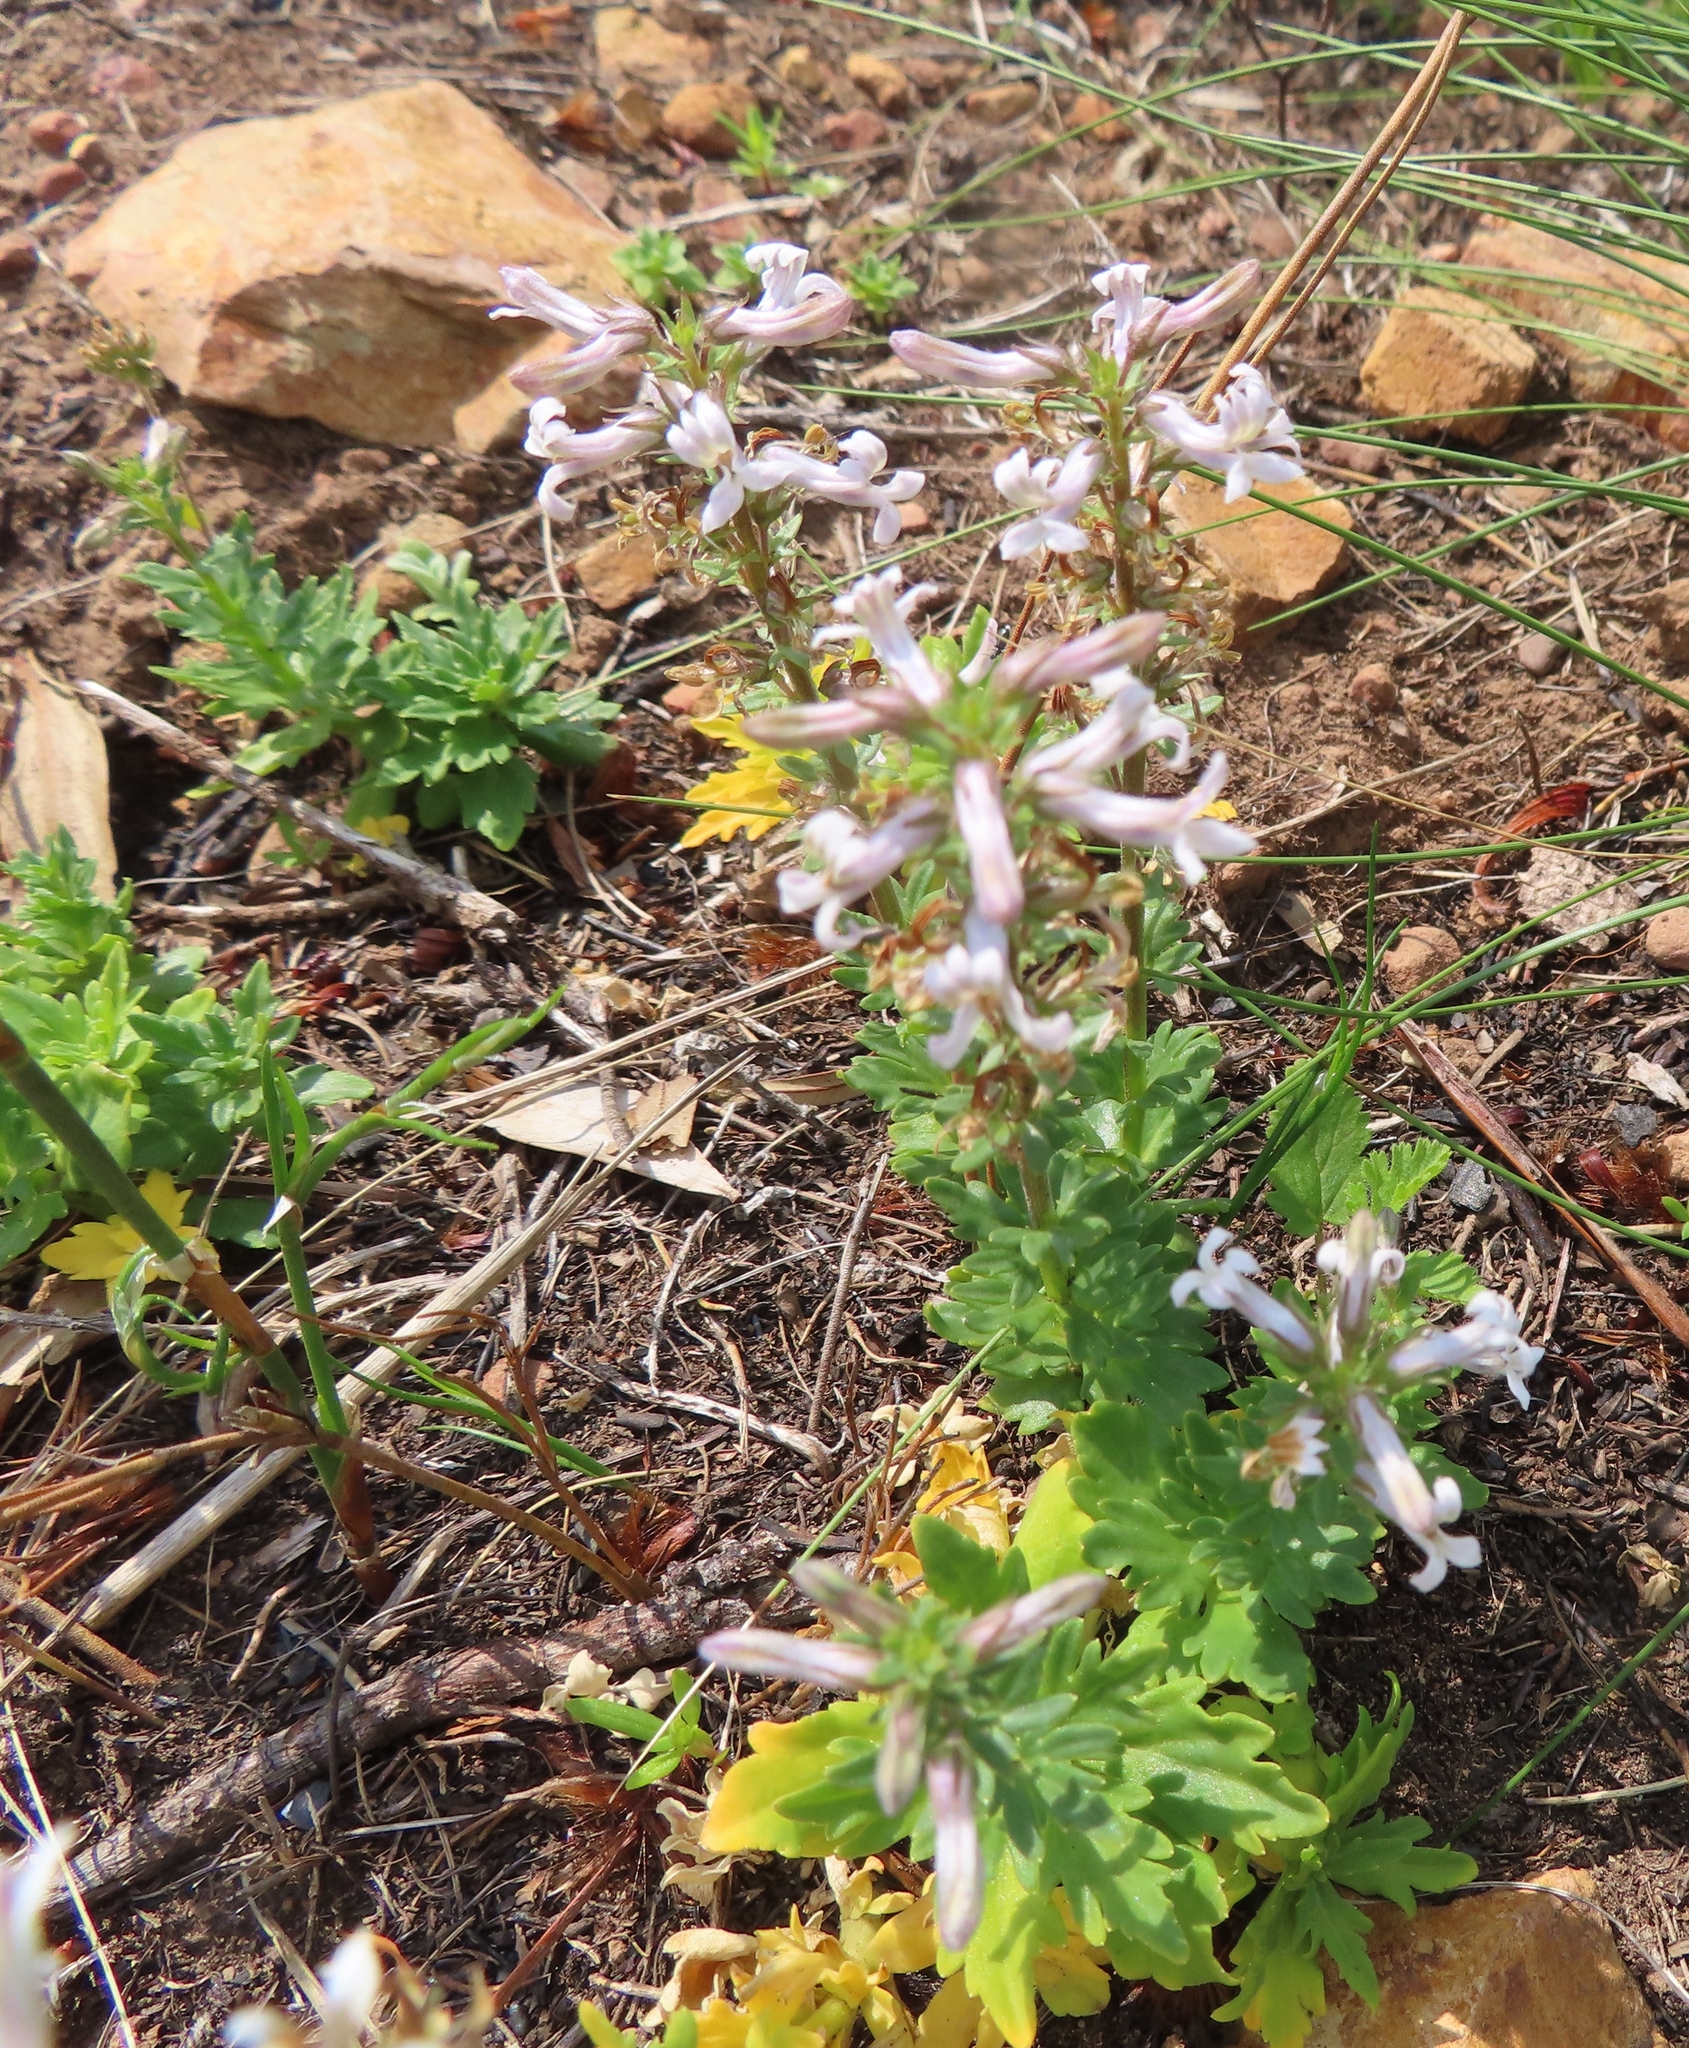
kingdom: Plantae
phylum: Tracheophyta
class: Magnoliopsida
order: Asterales
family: Campanulaceae
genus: Cyphia
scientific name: Cyphia bulbosa
